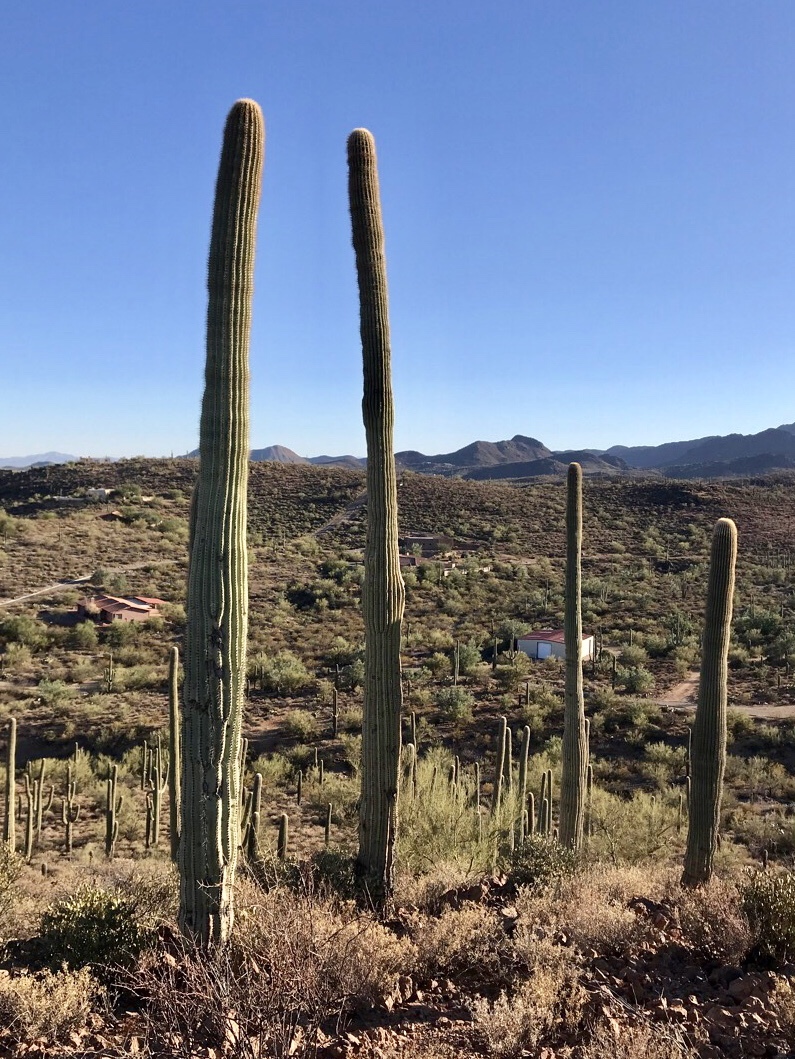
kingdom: Plantae
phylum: Tracheophyta
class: Magnoliopsida
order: Caryophyllales
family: Cactaceae
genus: Carnegiea
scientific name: Carnegiea gigantea
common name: Saguaro
